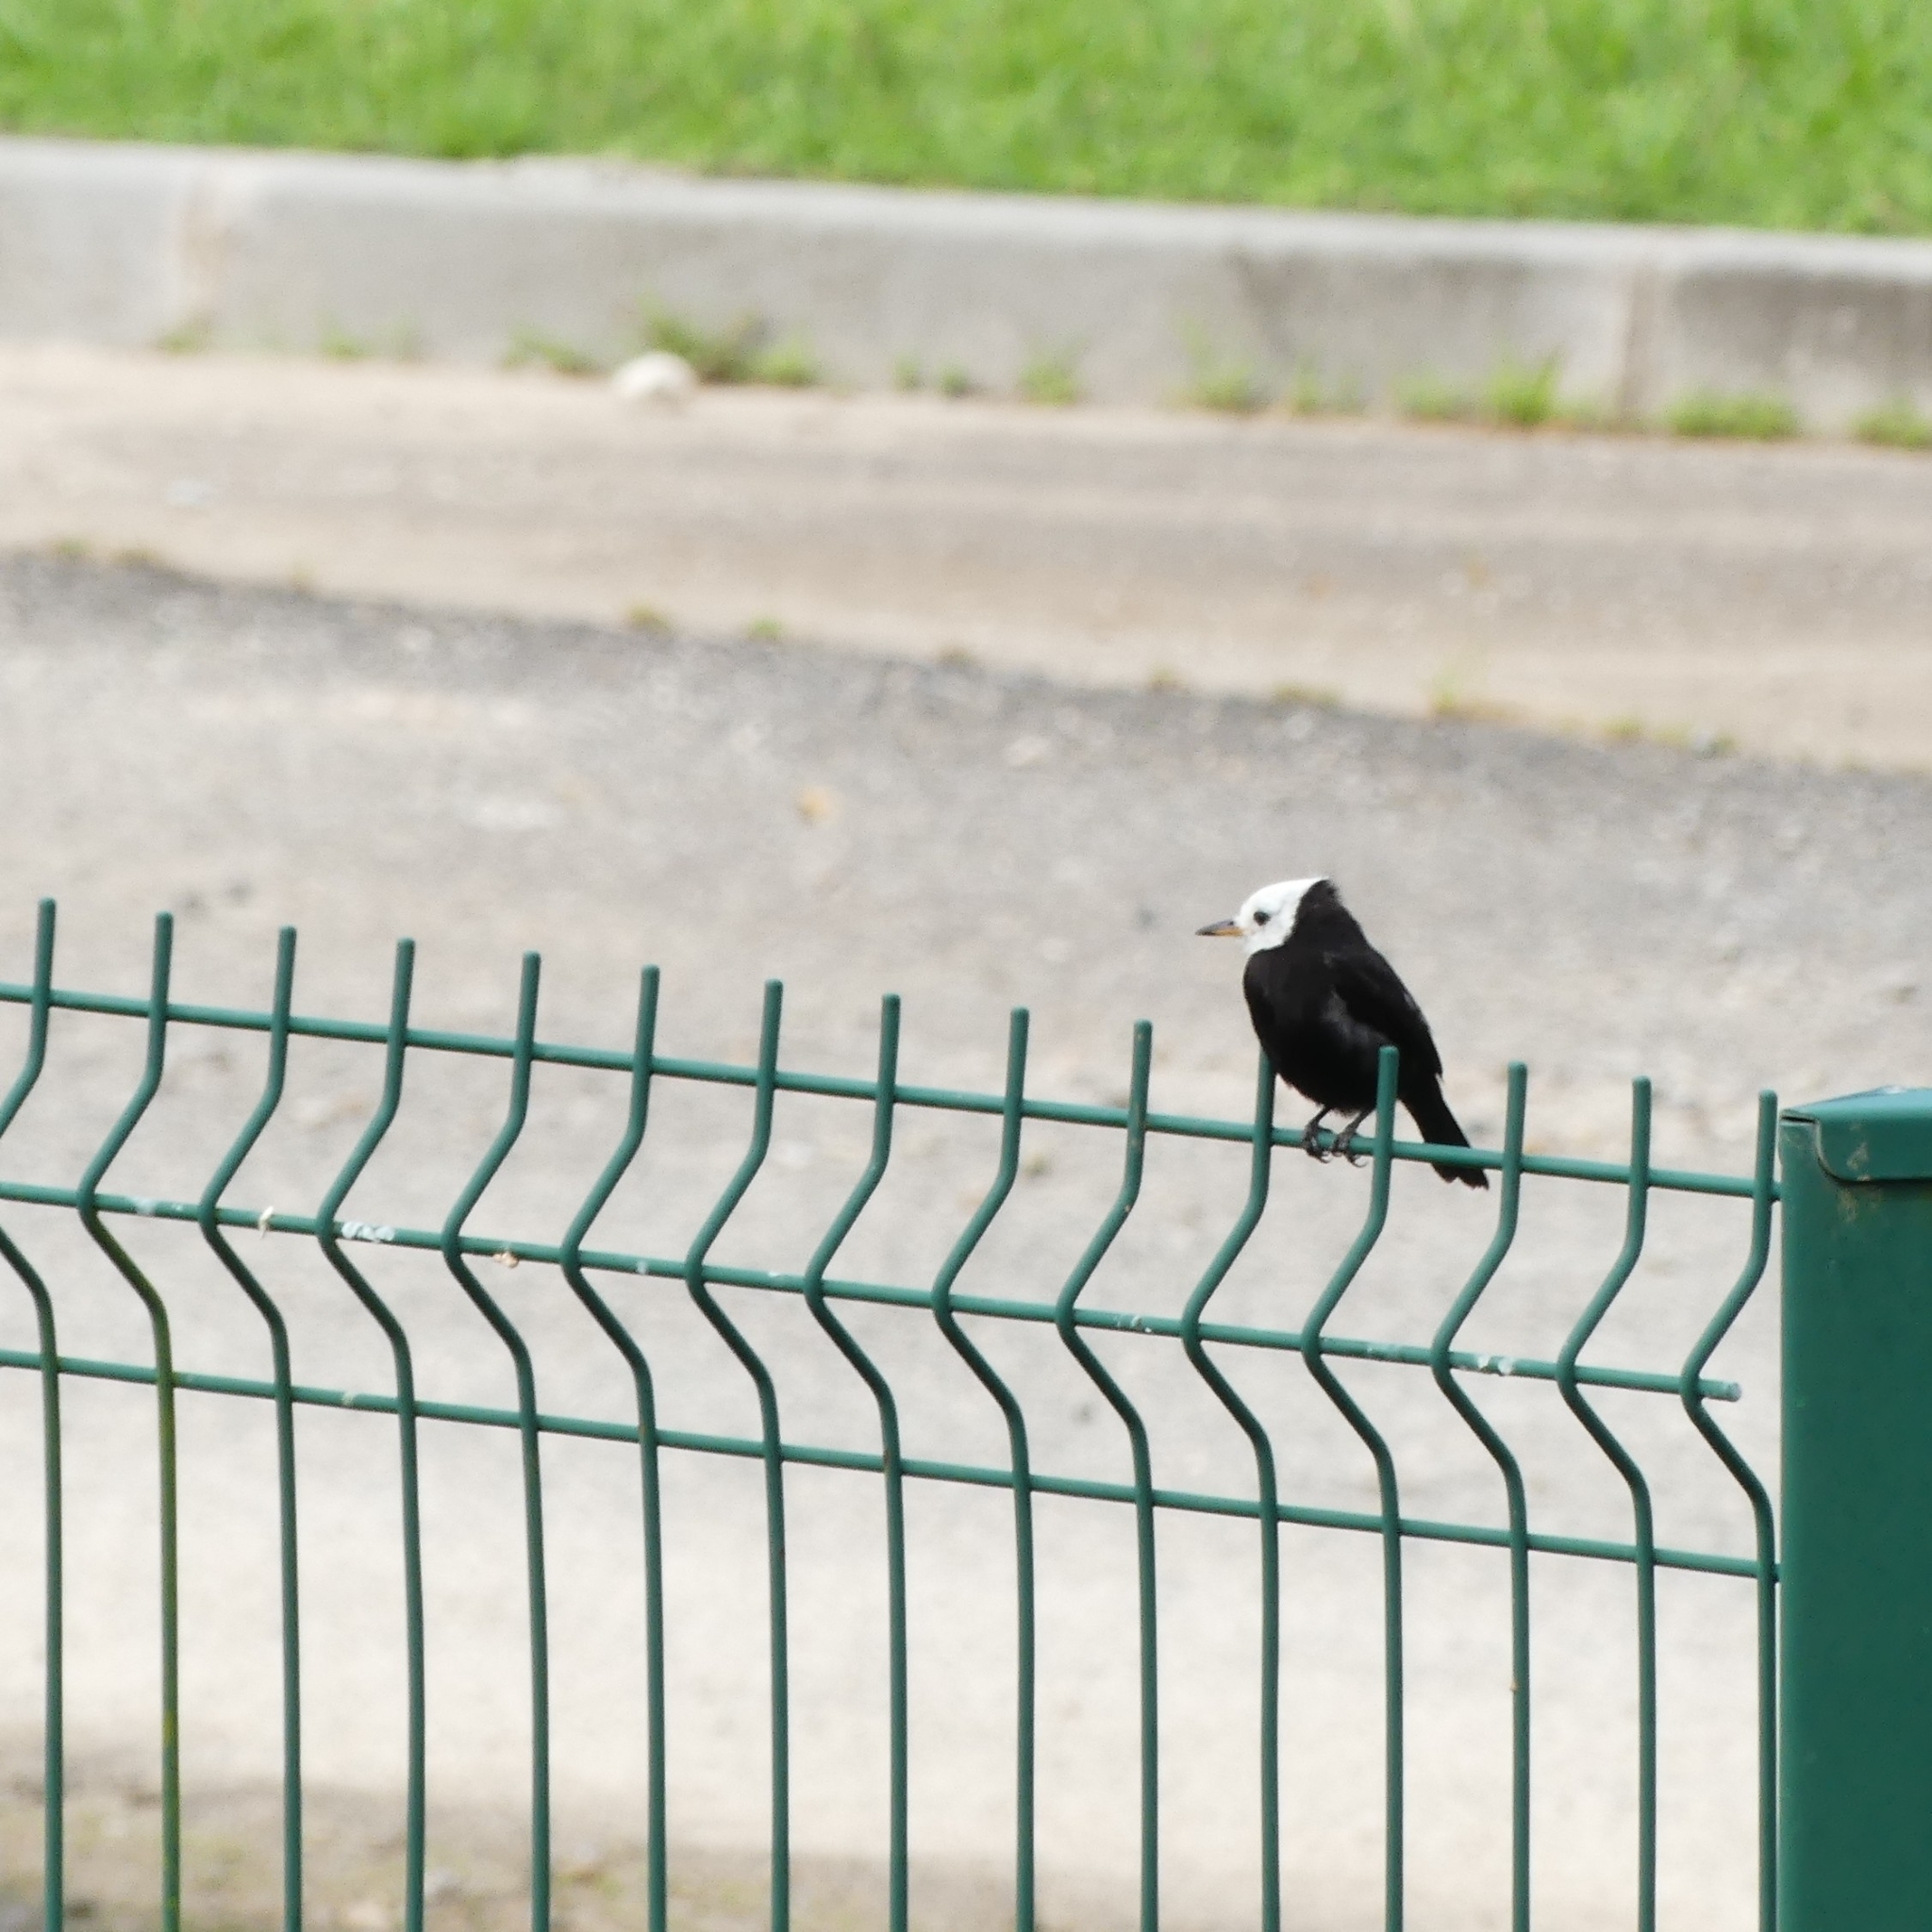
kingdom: Animalia
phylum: Chordata
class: Aves
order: Passeriformes
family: Tyrannidae
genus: Arundinicola
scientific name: Arundinicola leucocephala
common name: White-headed marsh tyrant
